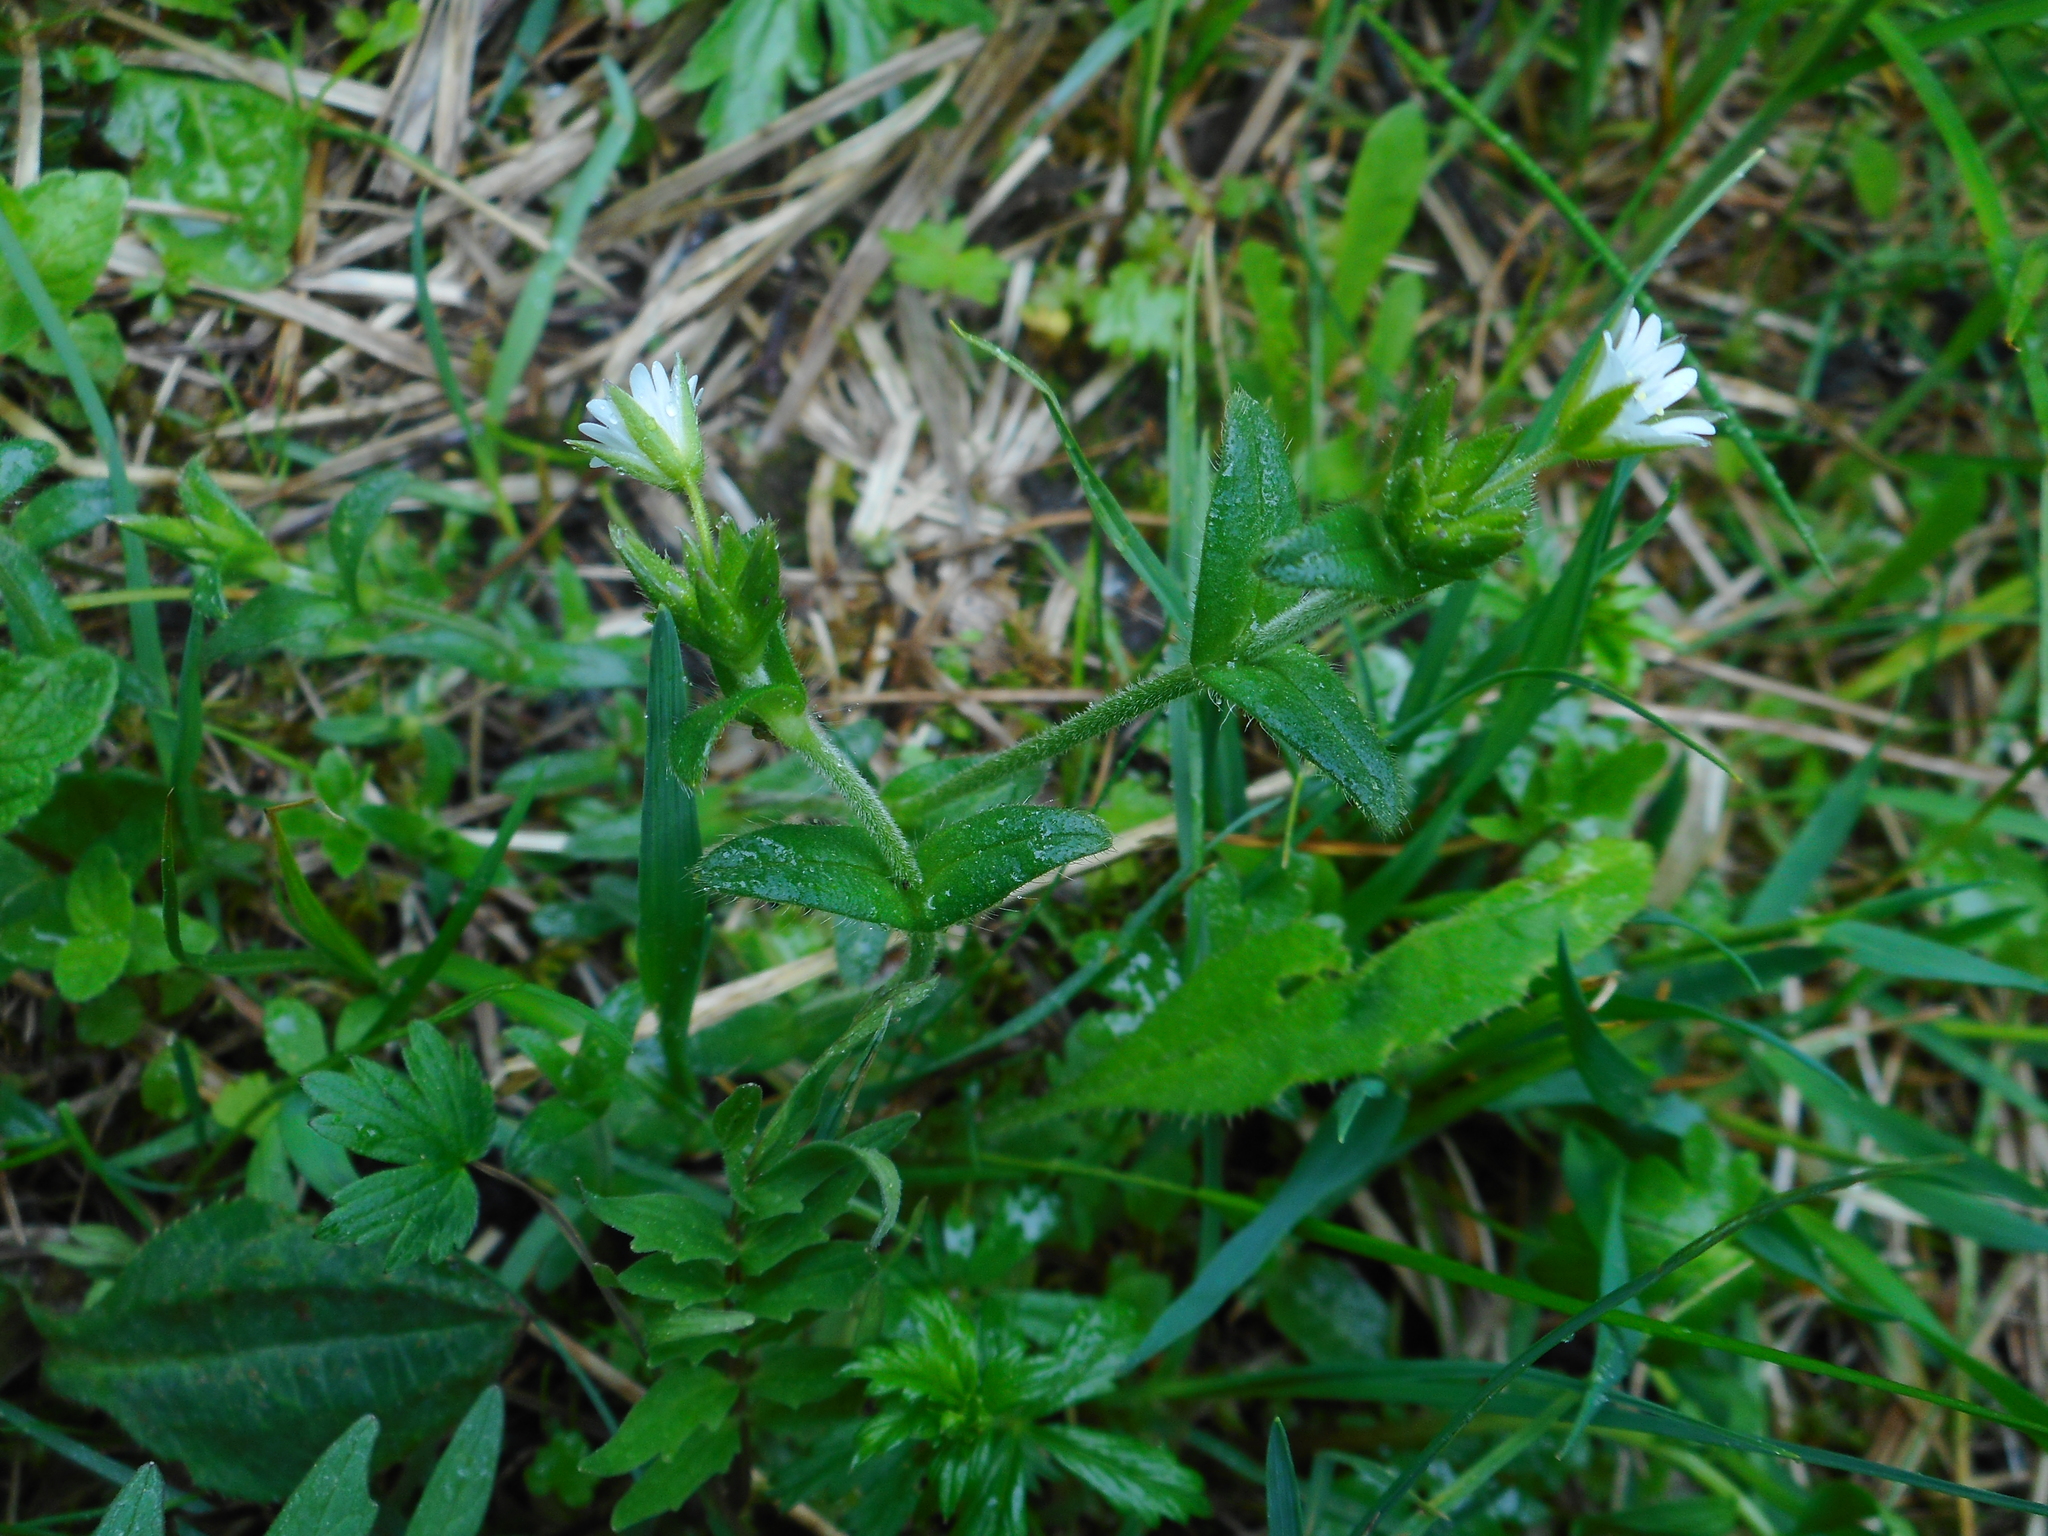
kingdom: Plantae
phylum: Tracheophyta
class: Magnoliopsida
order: Caryophyllales
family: Caryophyllaceae
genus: Cerastium
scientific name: Cerastium holosteoides
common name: Big chickweed
